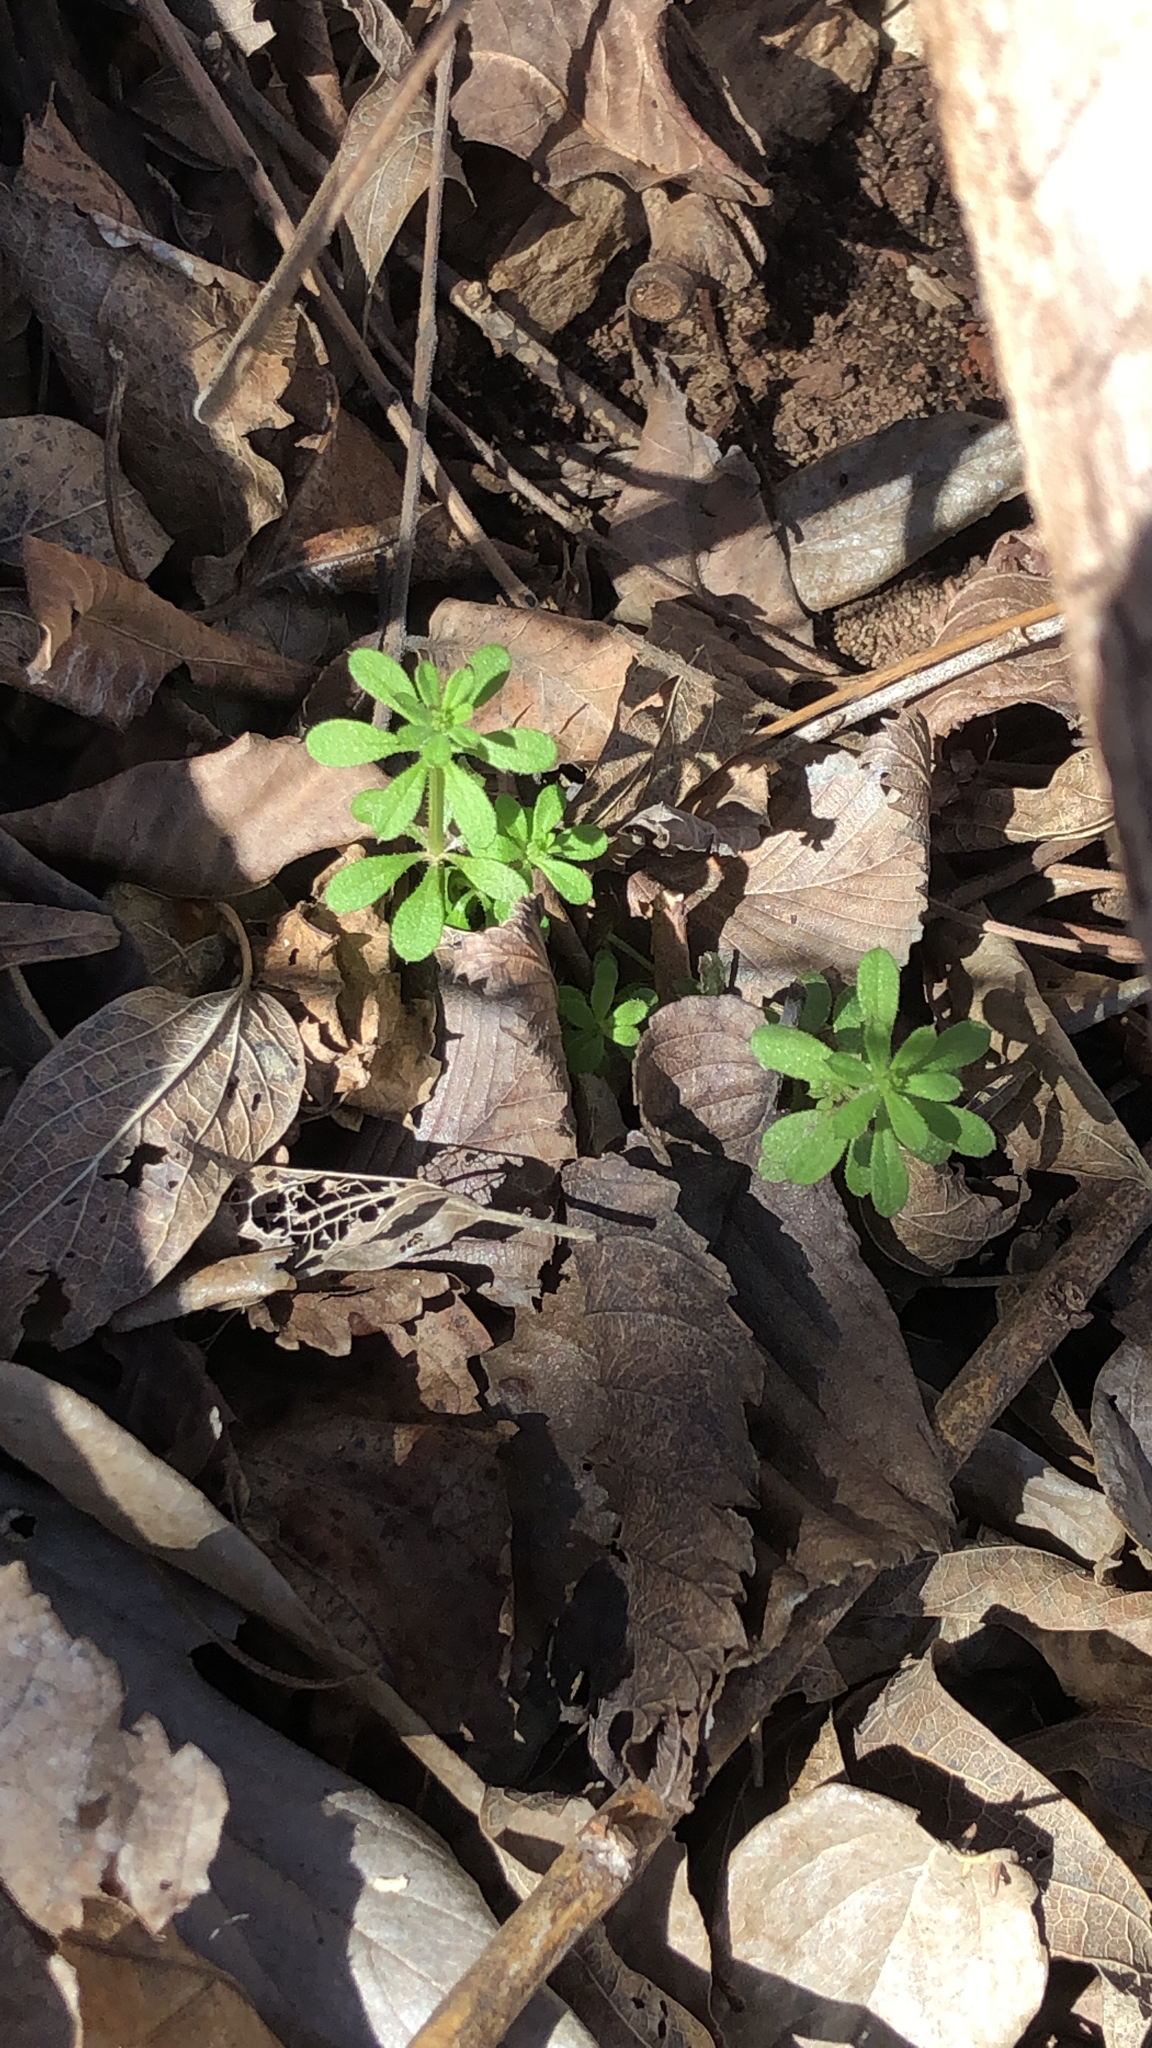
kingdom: Plantae
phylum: Tracheophyta
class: Magnoliopsida
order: Gentianales
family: Rubiaceae
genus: Galium
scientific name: Galium aparine
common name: Cleavers
